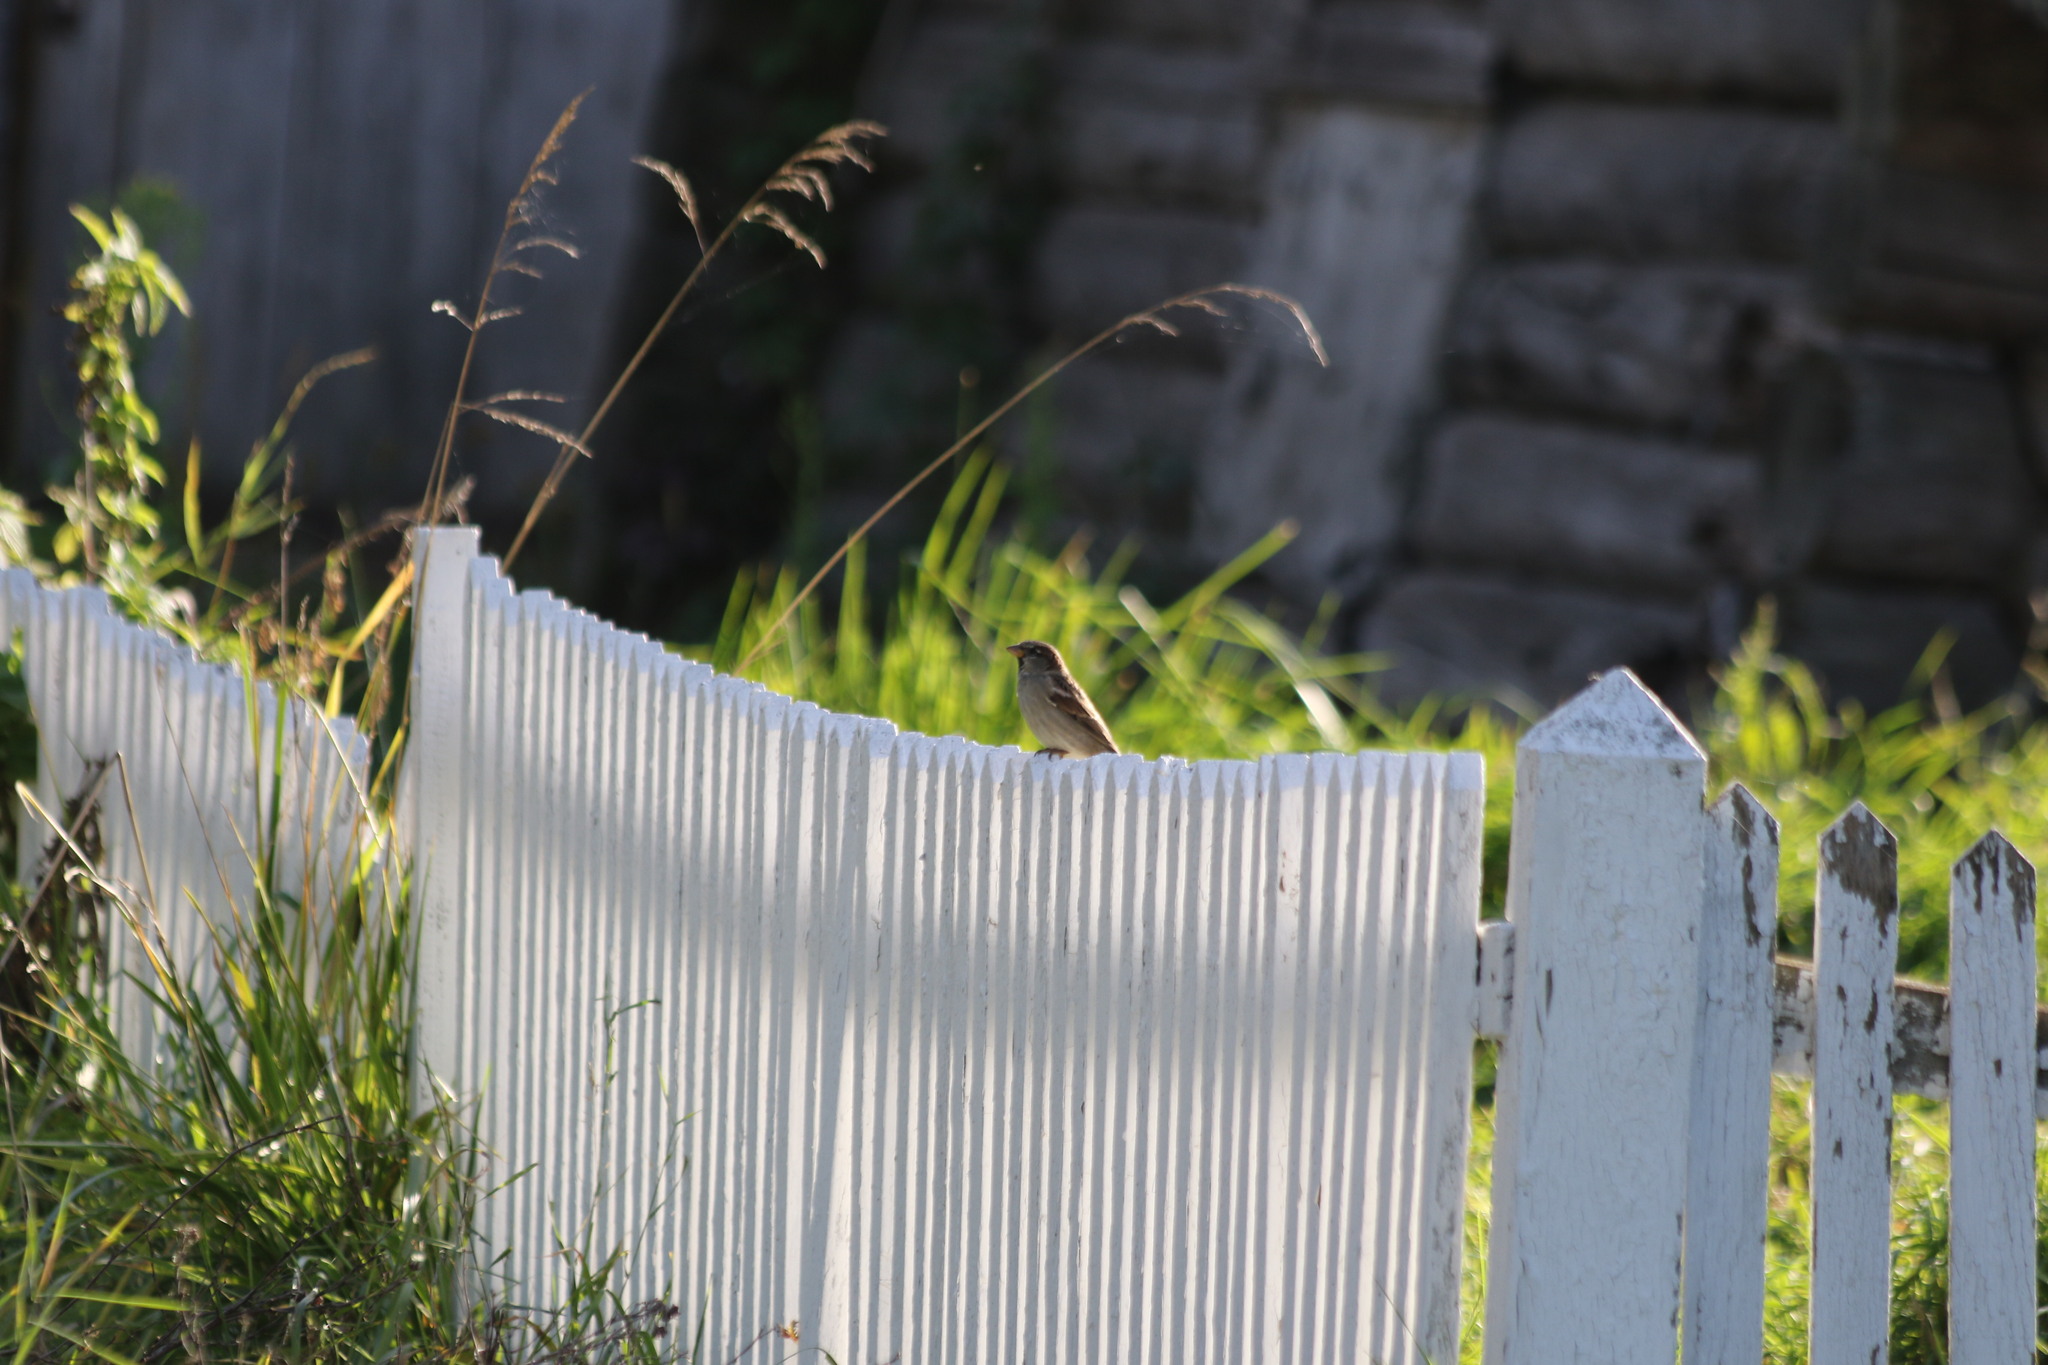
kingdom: Animalia
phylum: Chordata
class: Aves
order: Passeriformes
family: Passeridae
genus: Passer
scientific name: Passer domesticus
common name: House sparrow
